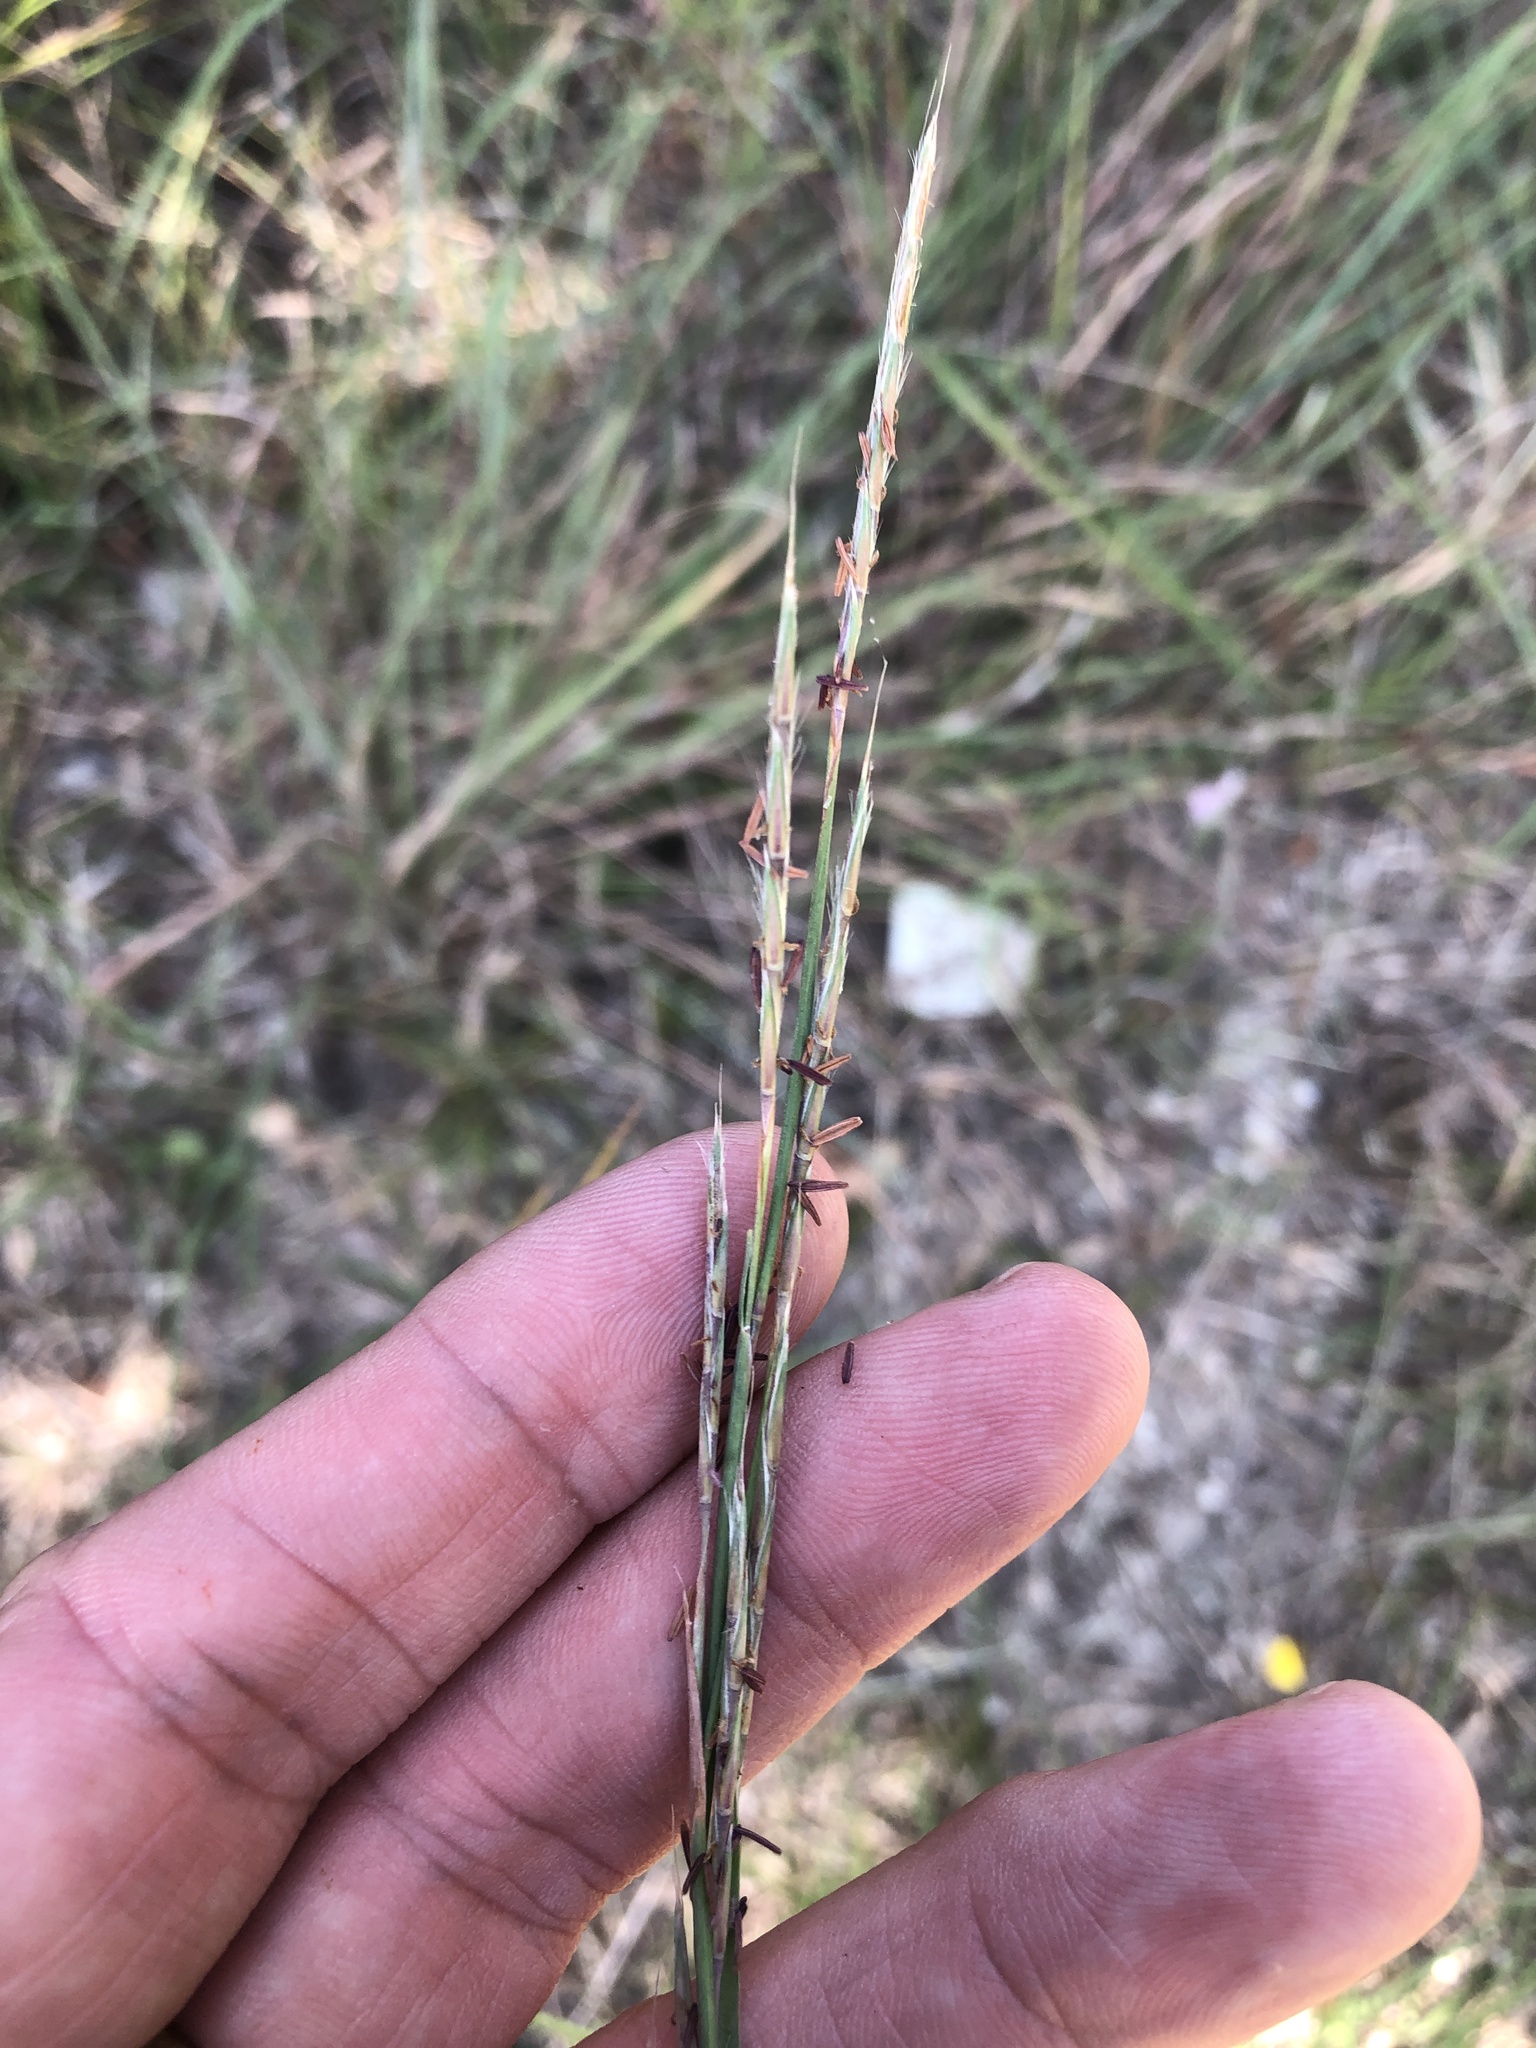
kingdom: Plantae
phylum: Tracheophyta
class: Liliopsida
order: Poales
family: Poaceae
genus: Schizachyrium
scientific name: Schizachyrium scoparium
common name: Little bluestem
